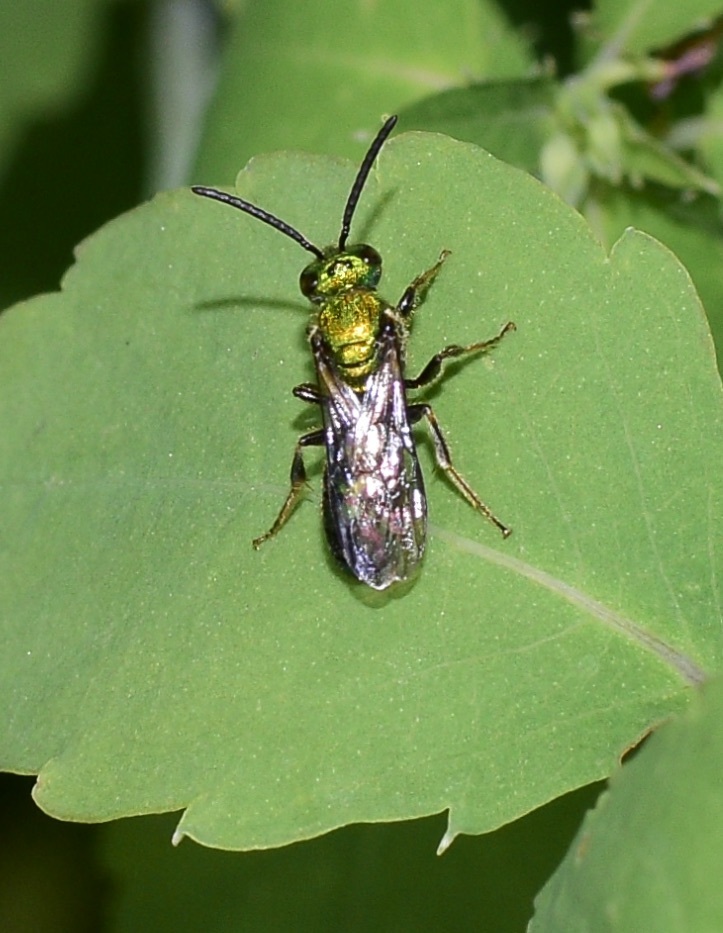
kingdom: Animalia
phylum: Arthropoda
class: Insecta
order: Hymenoptera
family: Halictidae
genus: Augochlora
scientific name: Augochlora pura
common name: Pure green sweat bee
